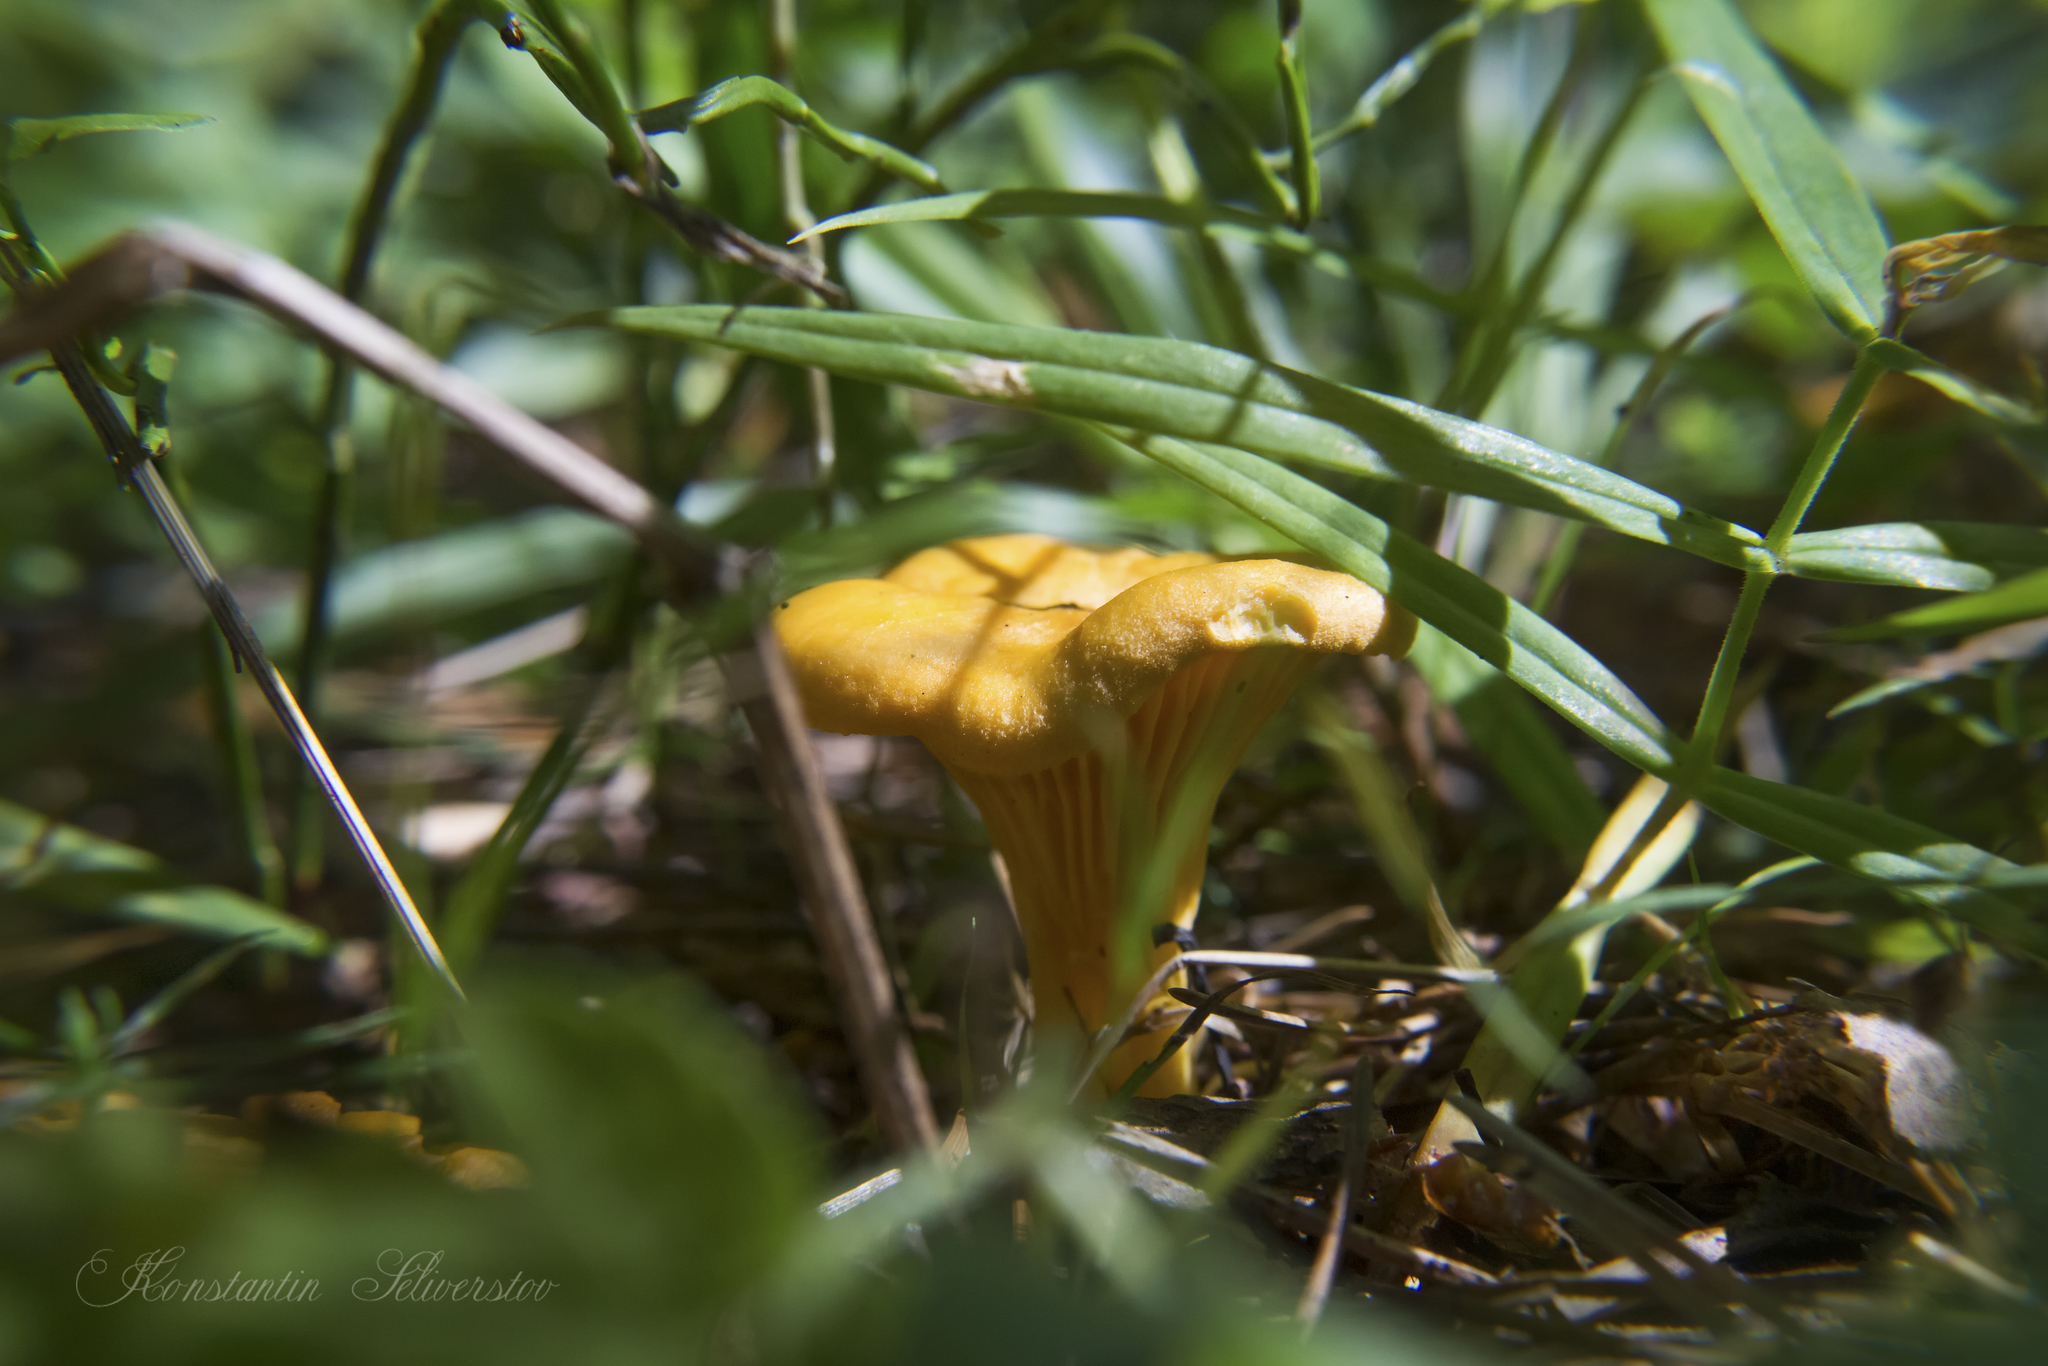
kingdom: Fungi
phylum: Basidiomycota
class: Agaricomycetes
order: Cantharellales
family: Hydnaceae
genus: Cantharellus
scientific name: Cantharellus cibarius
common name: Chanterelle
